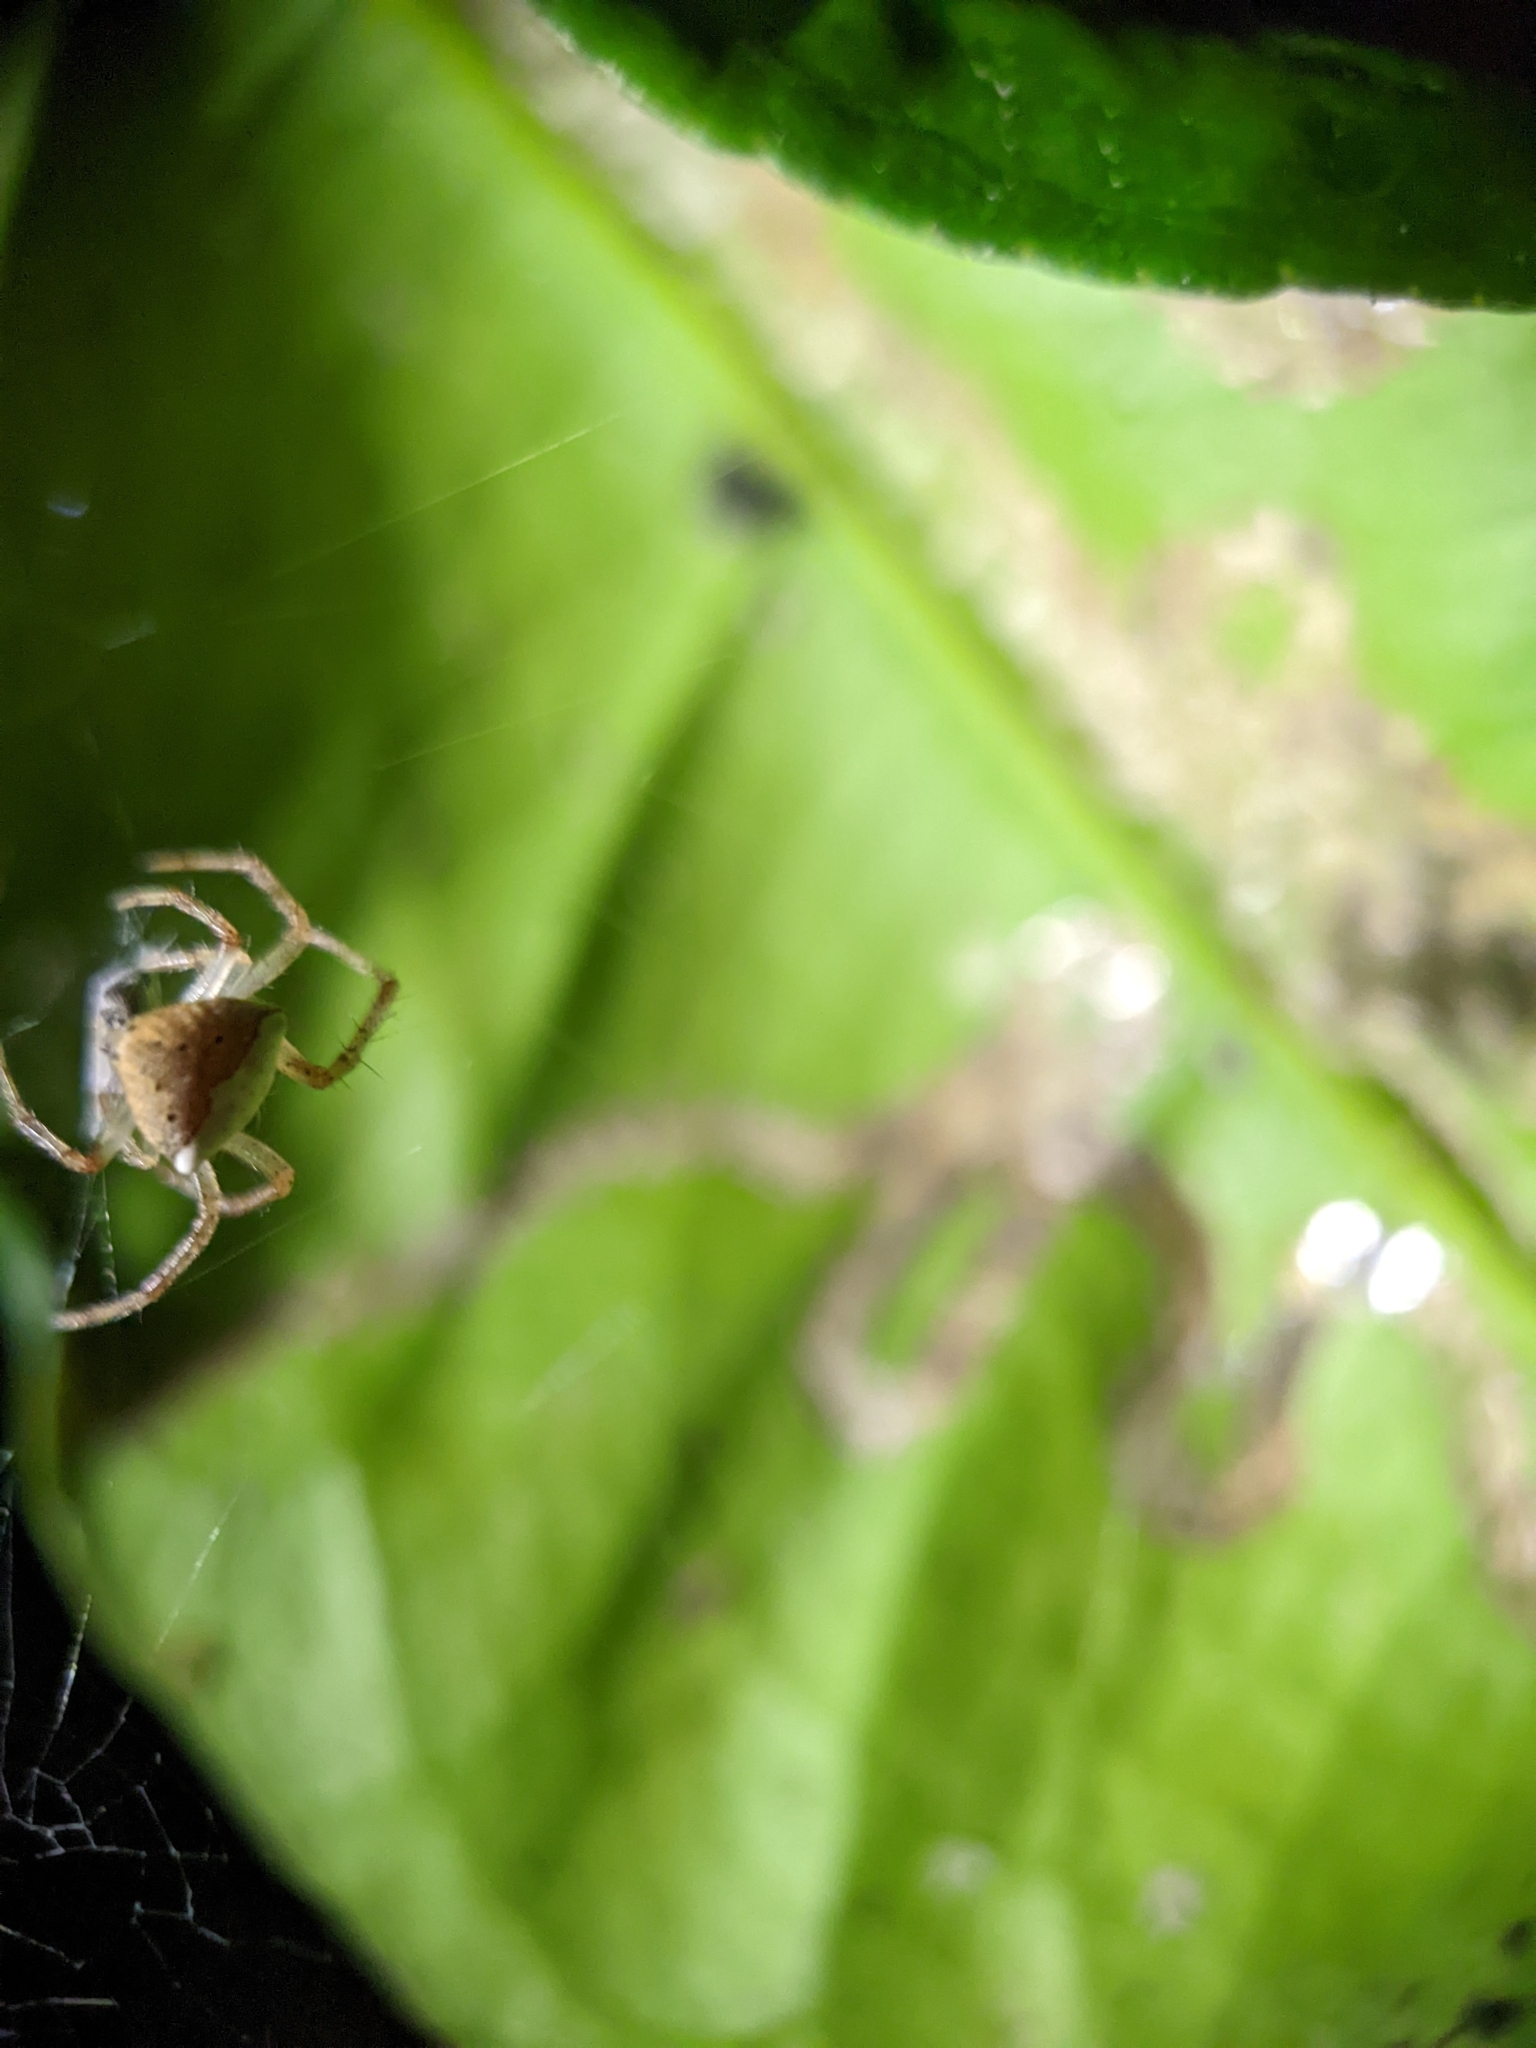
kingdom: Animalia
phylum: Arthropoda
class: Arachnida
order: Araneae
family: Araneidae
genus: Araneus
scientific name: Araneus miniatus
